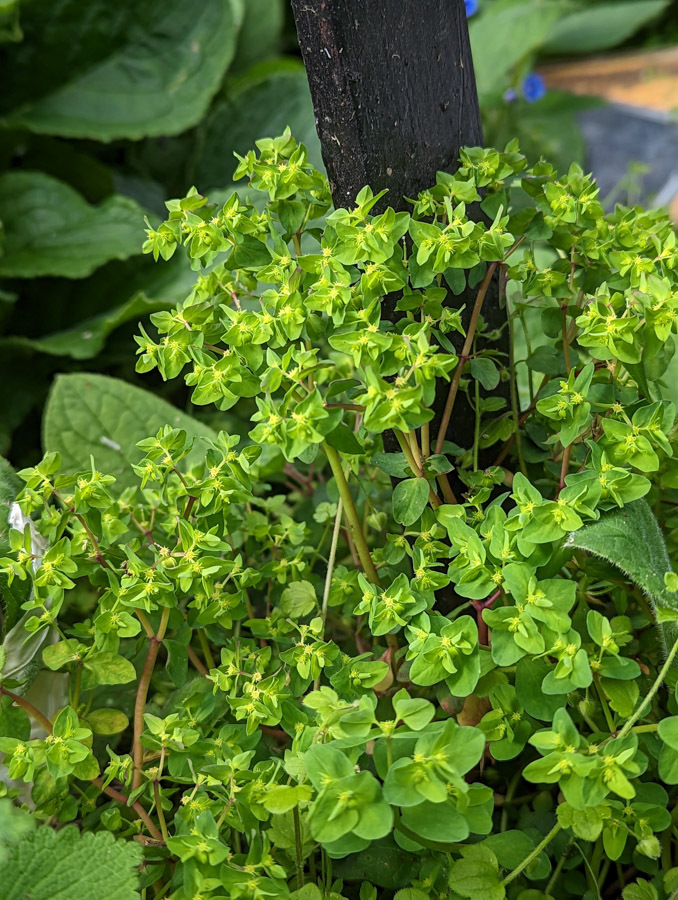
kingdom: Plantae
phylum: Tracheophyta
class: Magnoliopsida
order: Malpighiales
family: Euphorbiaceae
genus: Euphorbia
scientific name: Euphorbia peplus
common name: Petty spurge
